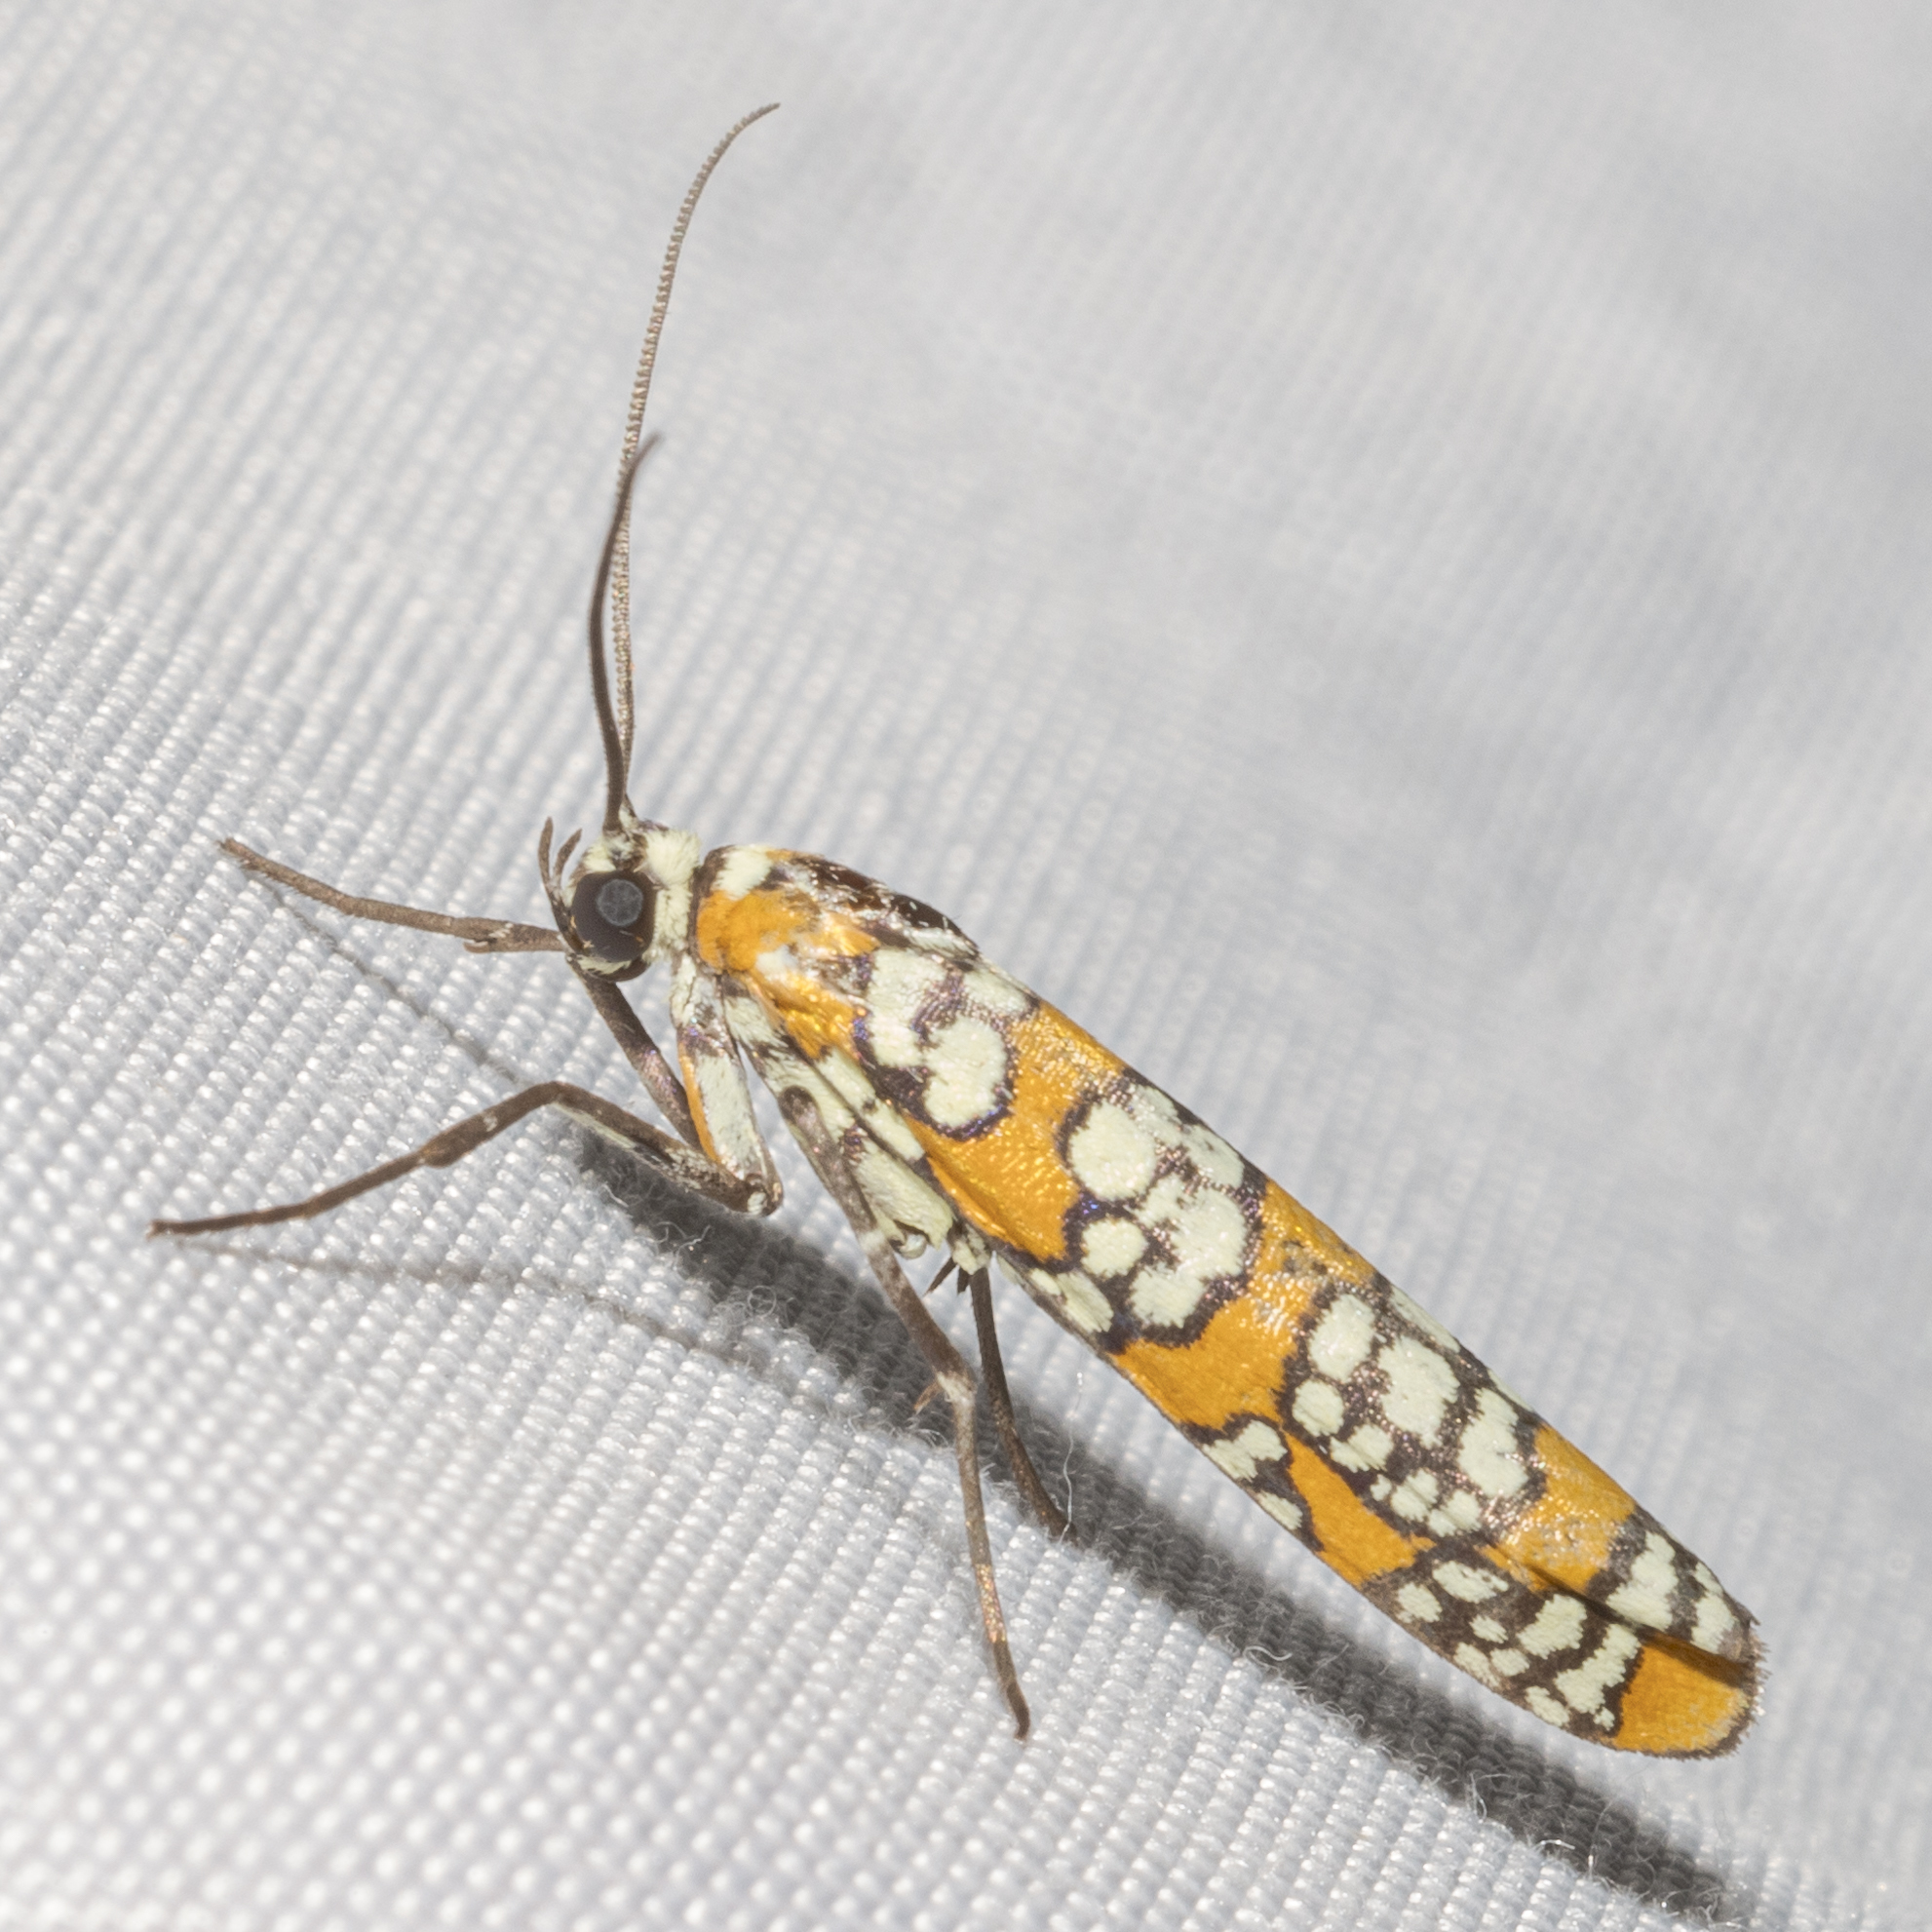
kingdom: Animalia
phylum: Arthropoda
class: Insecta
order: Lepidoptera
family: Attevidae
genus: Atteva
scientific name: Atteva punctella
